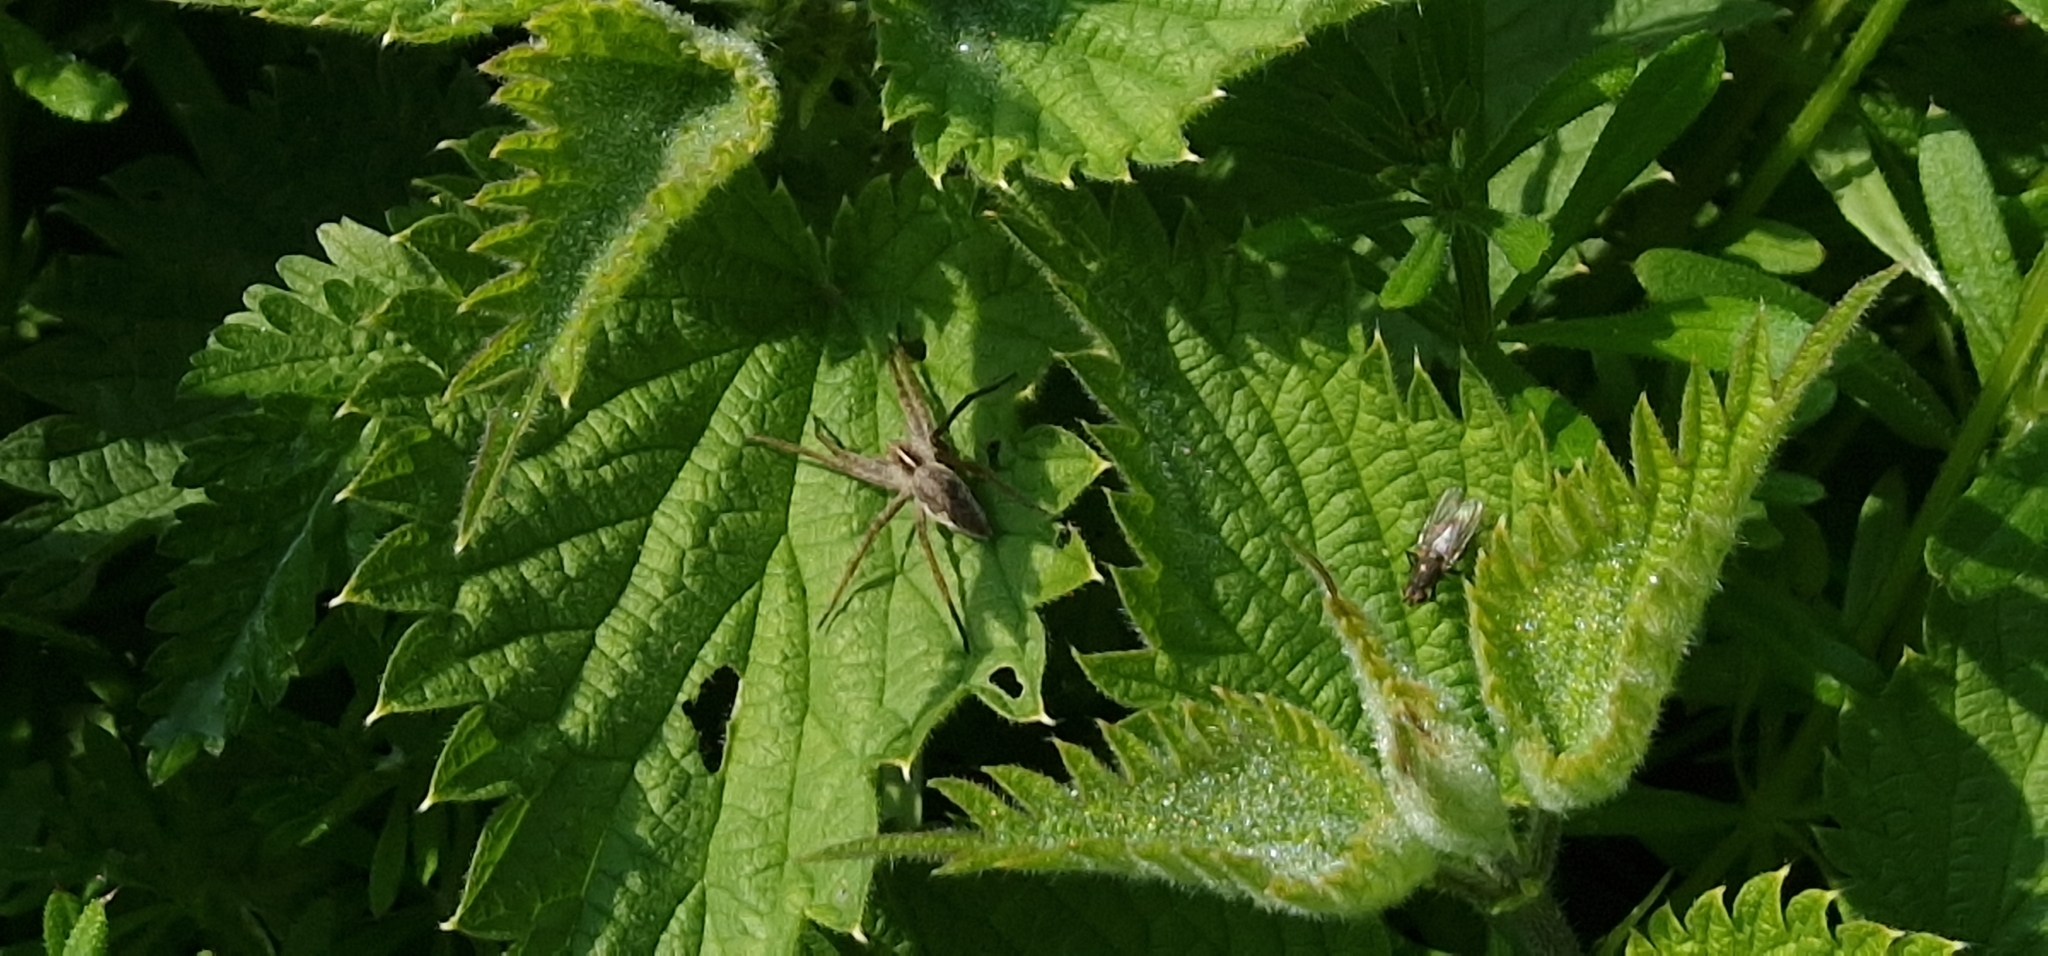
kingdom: Animalia
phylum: Arthropoda
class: Arachnida
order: Araneae
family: Pisauridae
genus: Pisaura
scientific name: Pisaura mirabilis
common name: Tent spider
